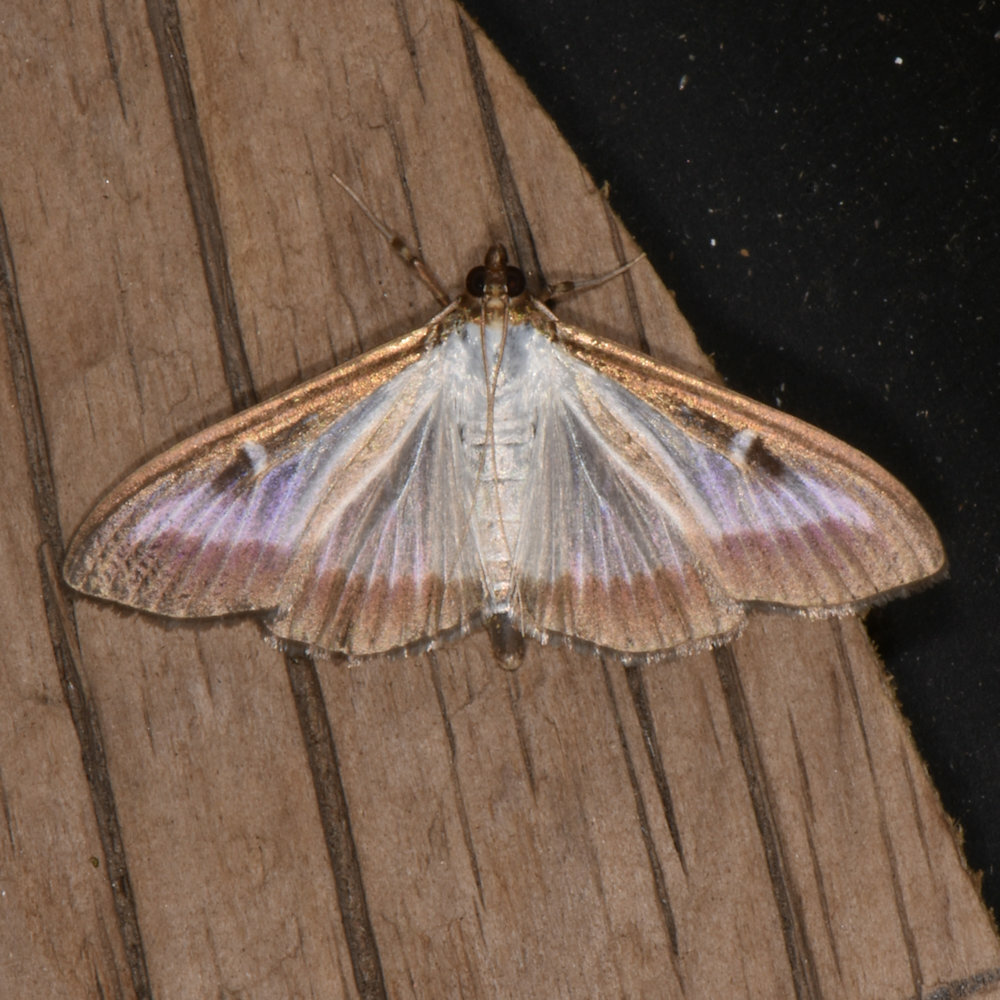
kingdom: Animalia
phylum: Arthropoda
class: Insecta
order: Lepidoptera
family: Crambidae
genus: Cydalima
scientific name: Cydalima perspectalis
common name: Box tree moth
